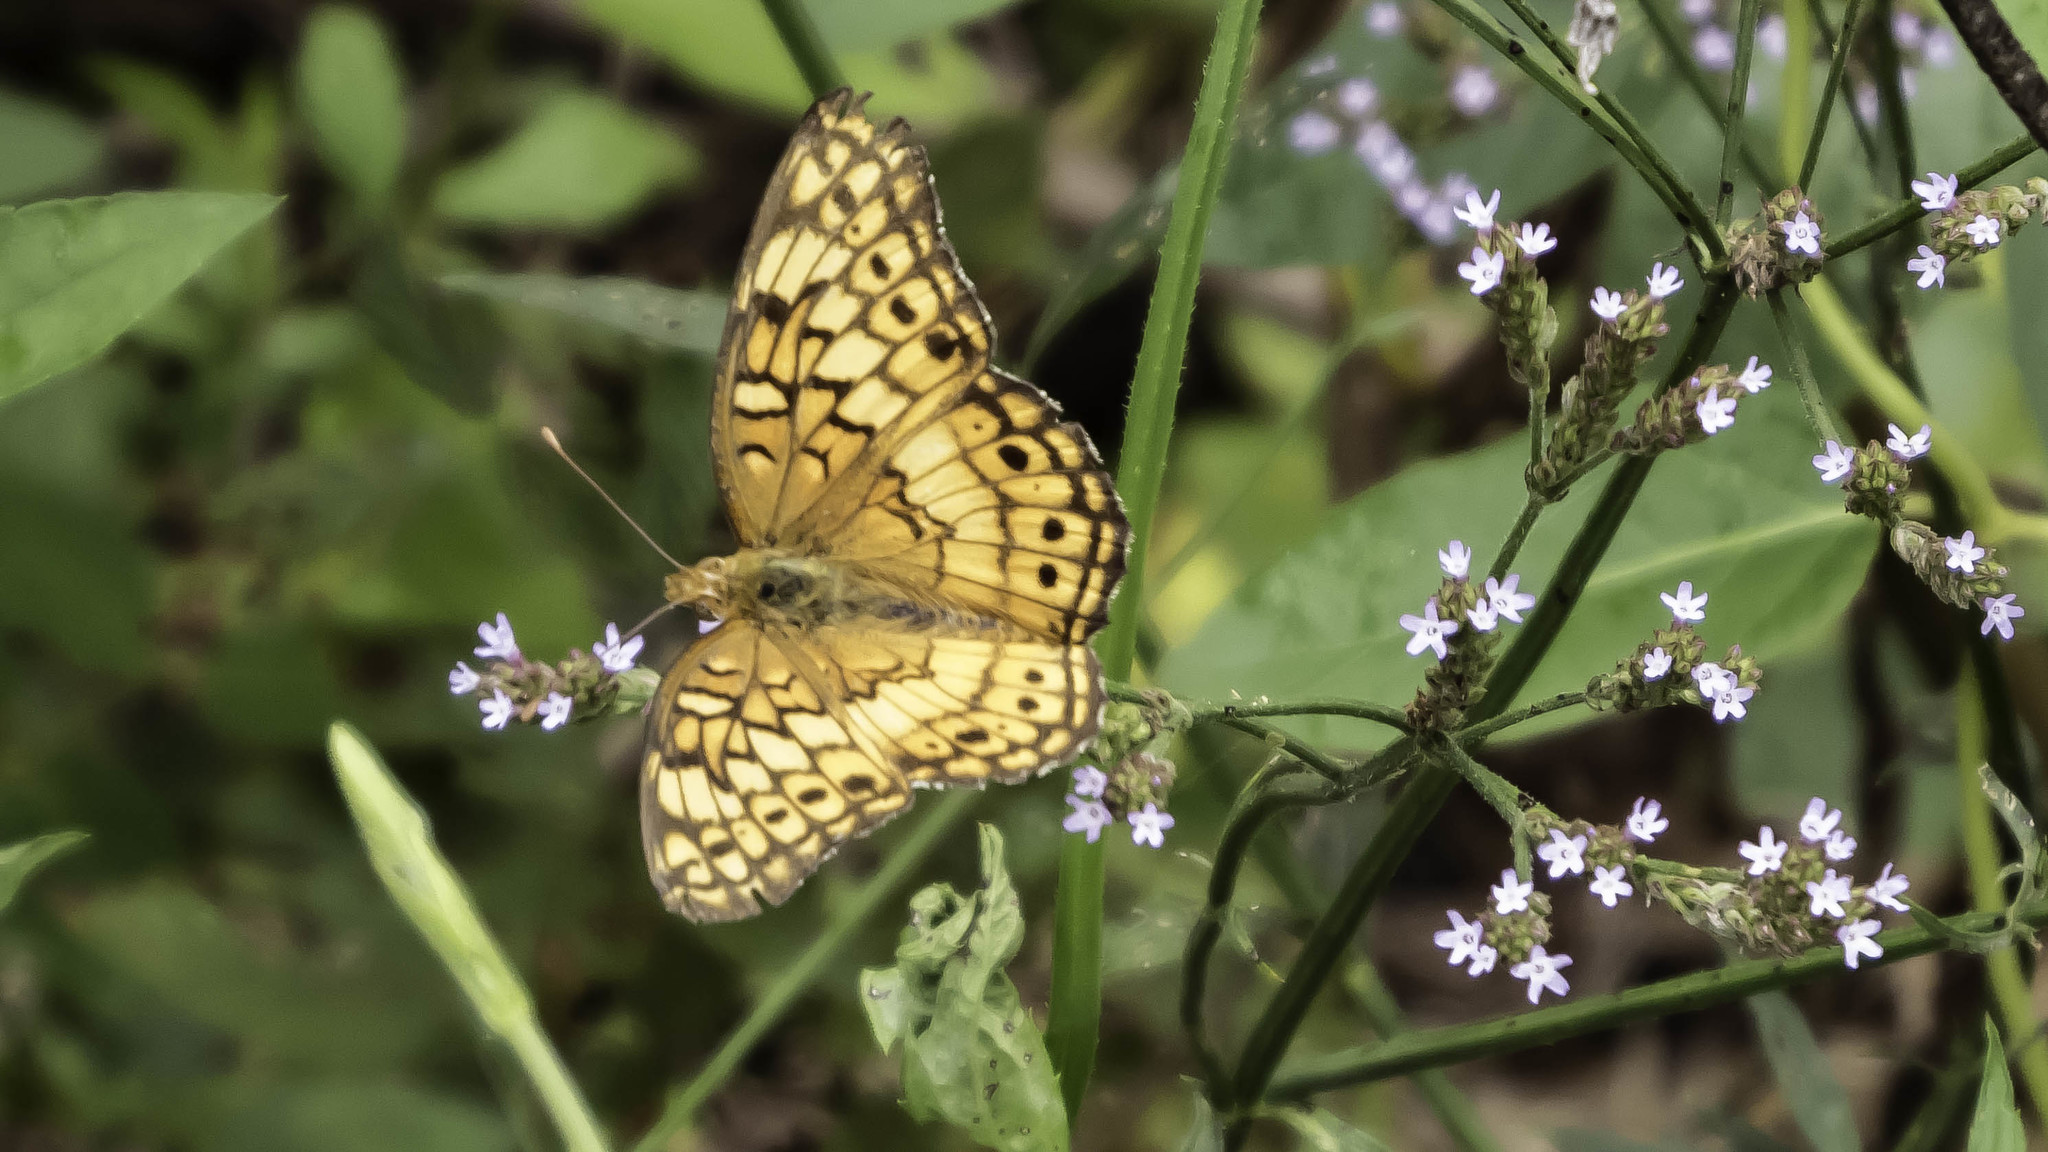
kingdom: Animalia
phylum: Arthropoda
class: Insecta
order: Lepidoptera
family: Nymphalidae
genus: Euptoieta
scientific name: Euptoieta claudia
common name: Variegated fritillary
